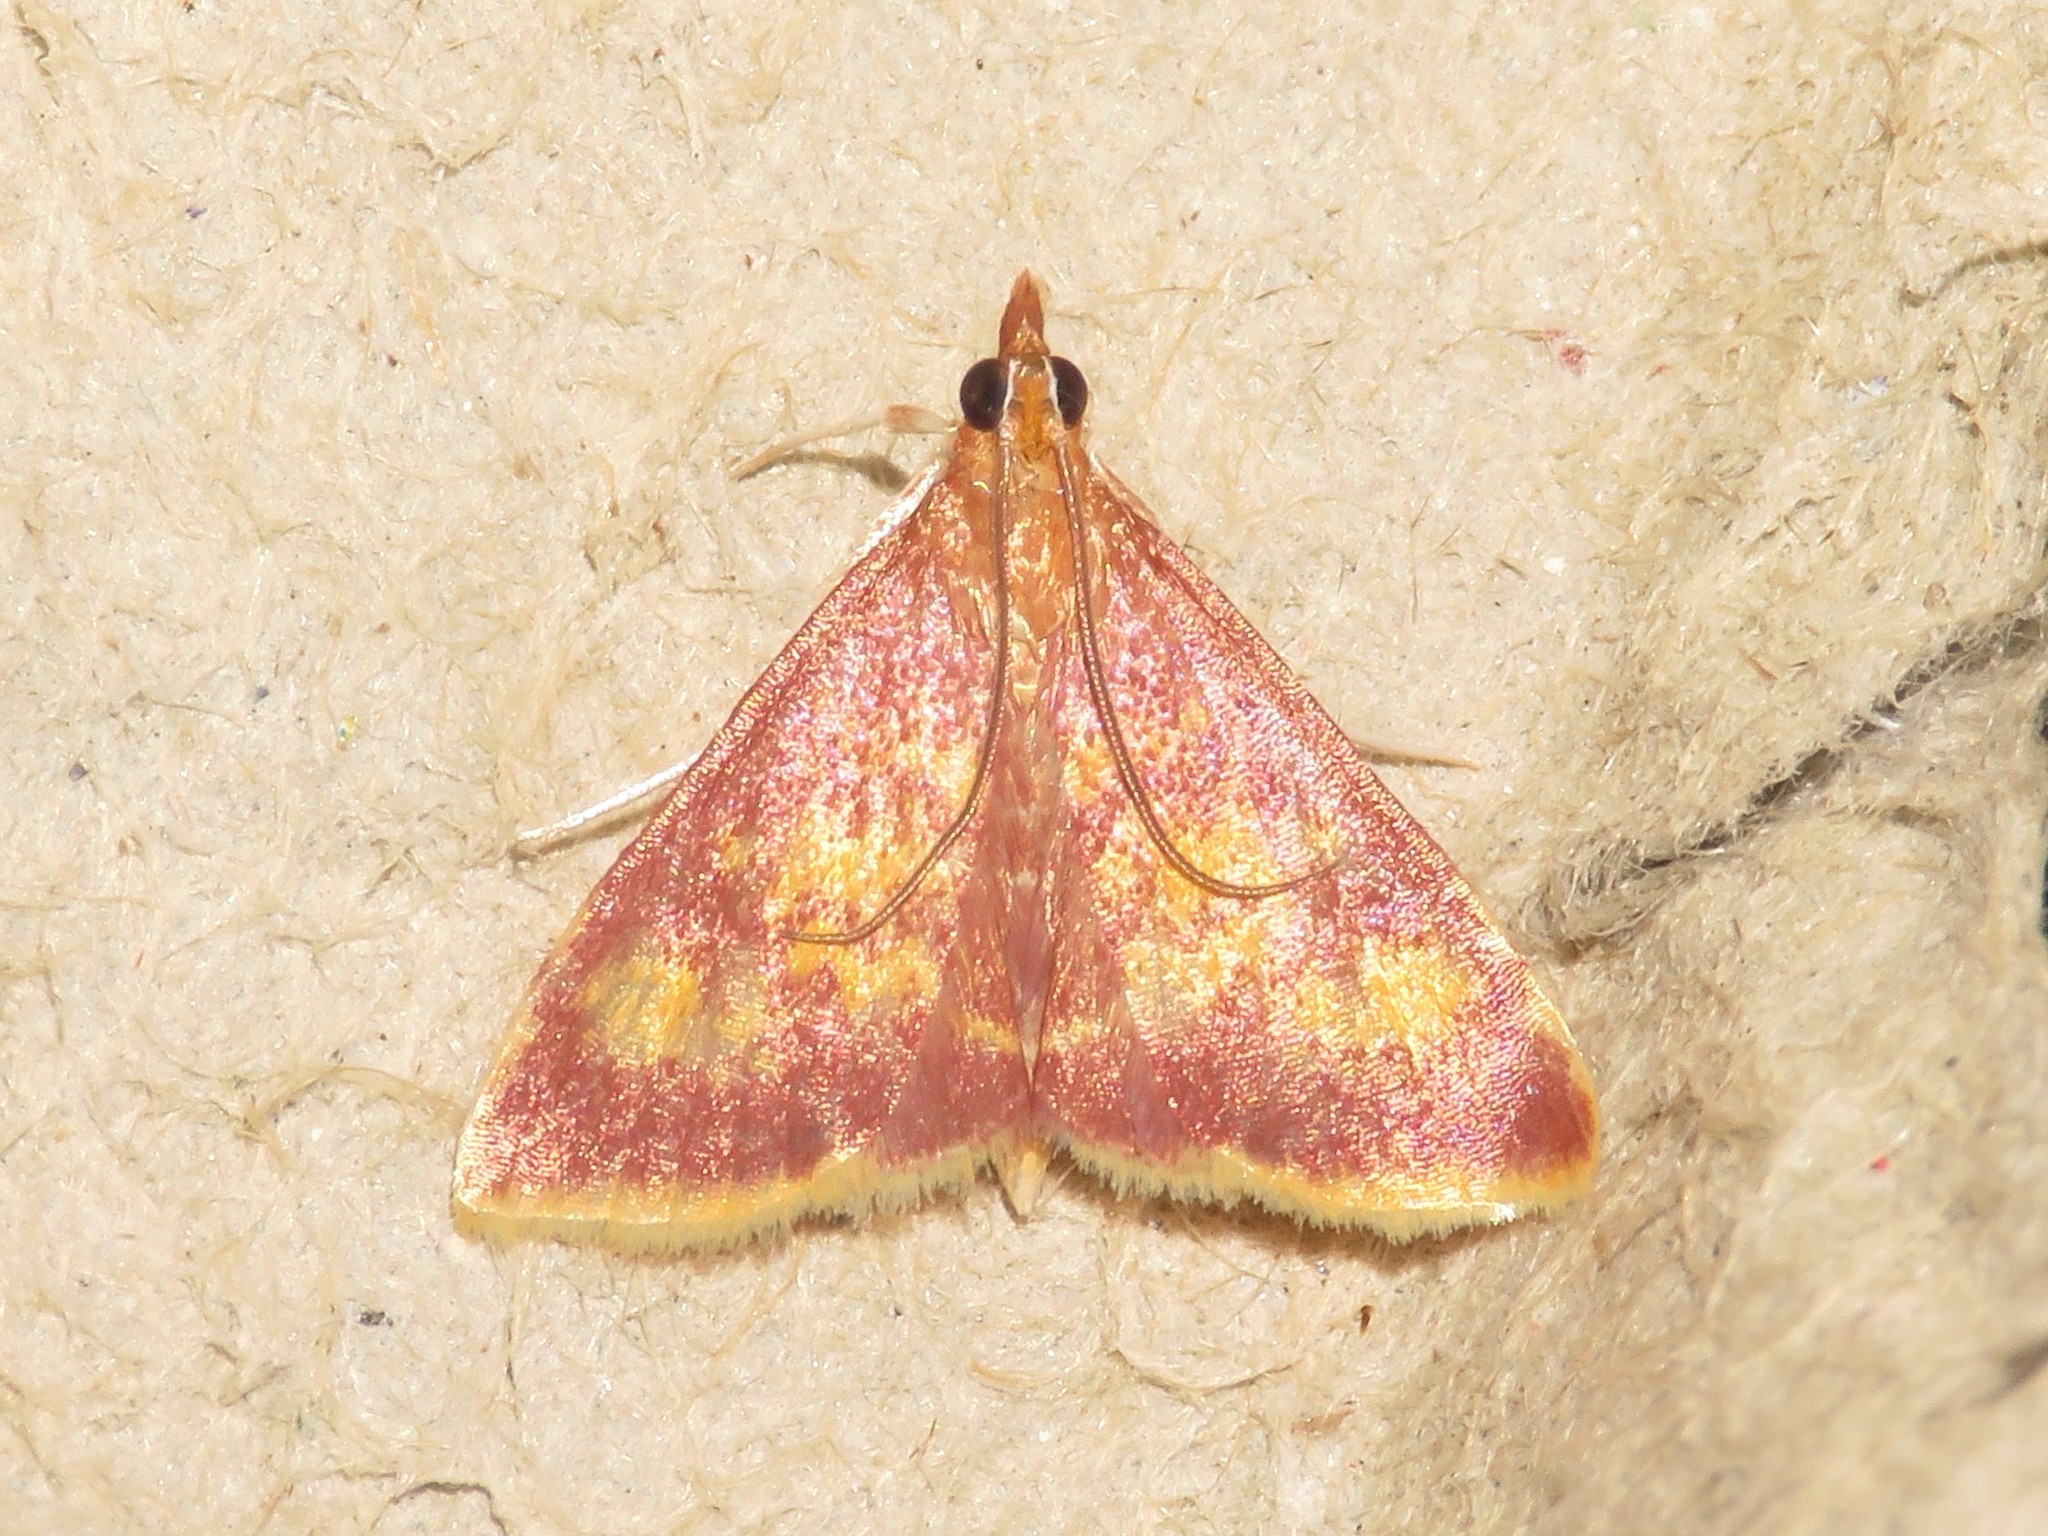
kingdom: Animalia
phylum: Arthropoda
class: Insecta
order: Lepidoptera
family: Crambidae
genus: Pyrausta
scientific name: Pyrausta acrionalis
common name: Mint-loving pyrausta moth
